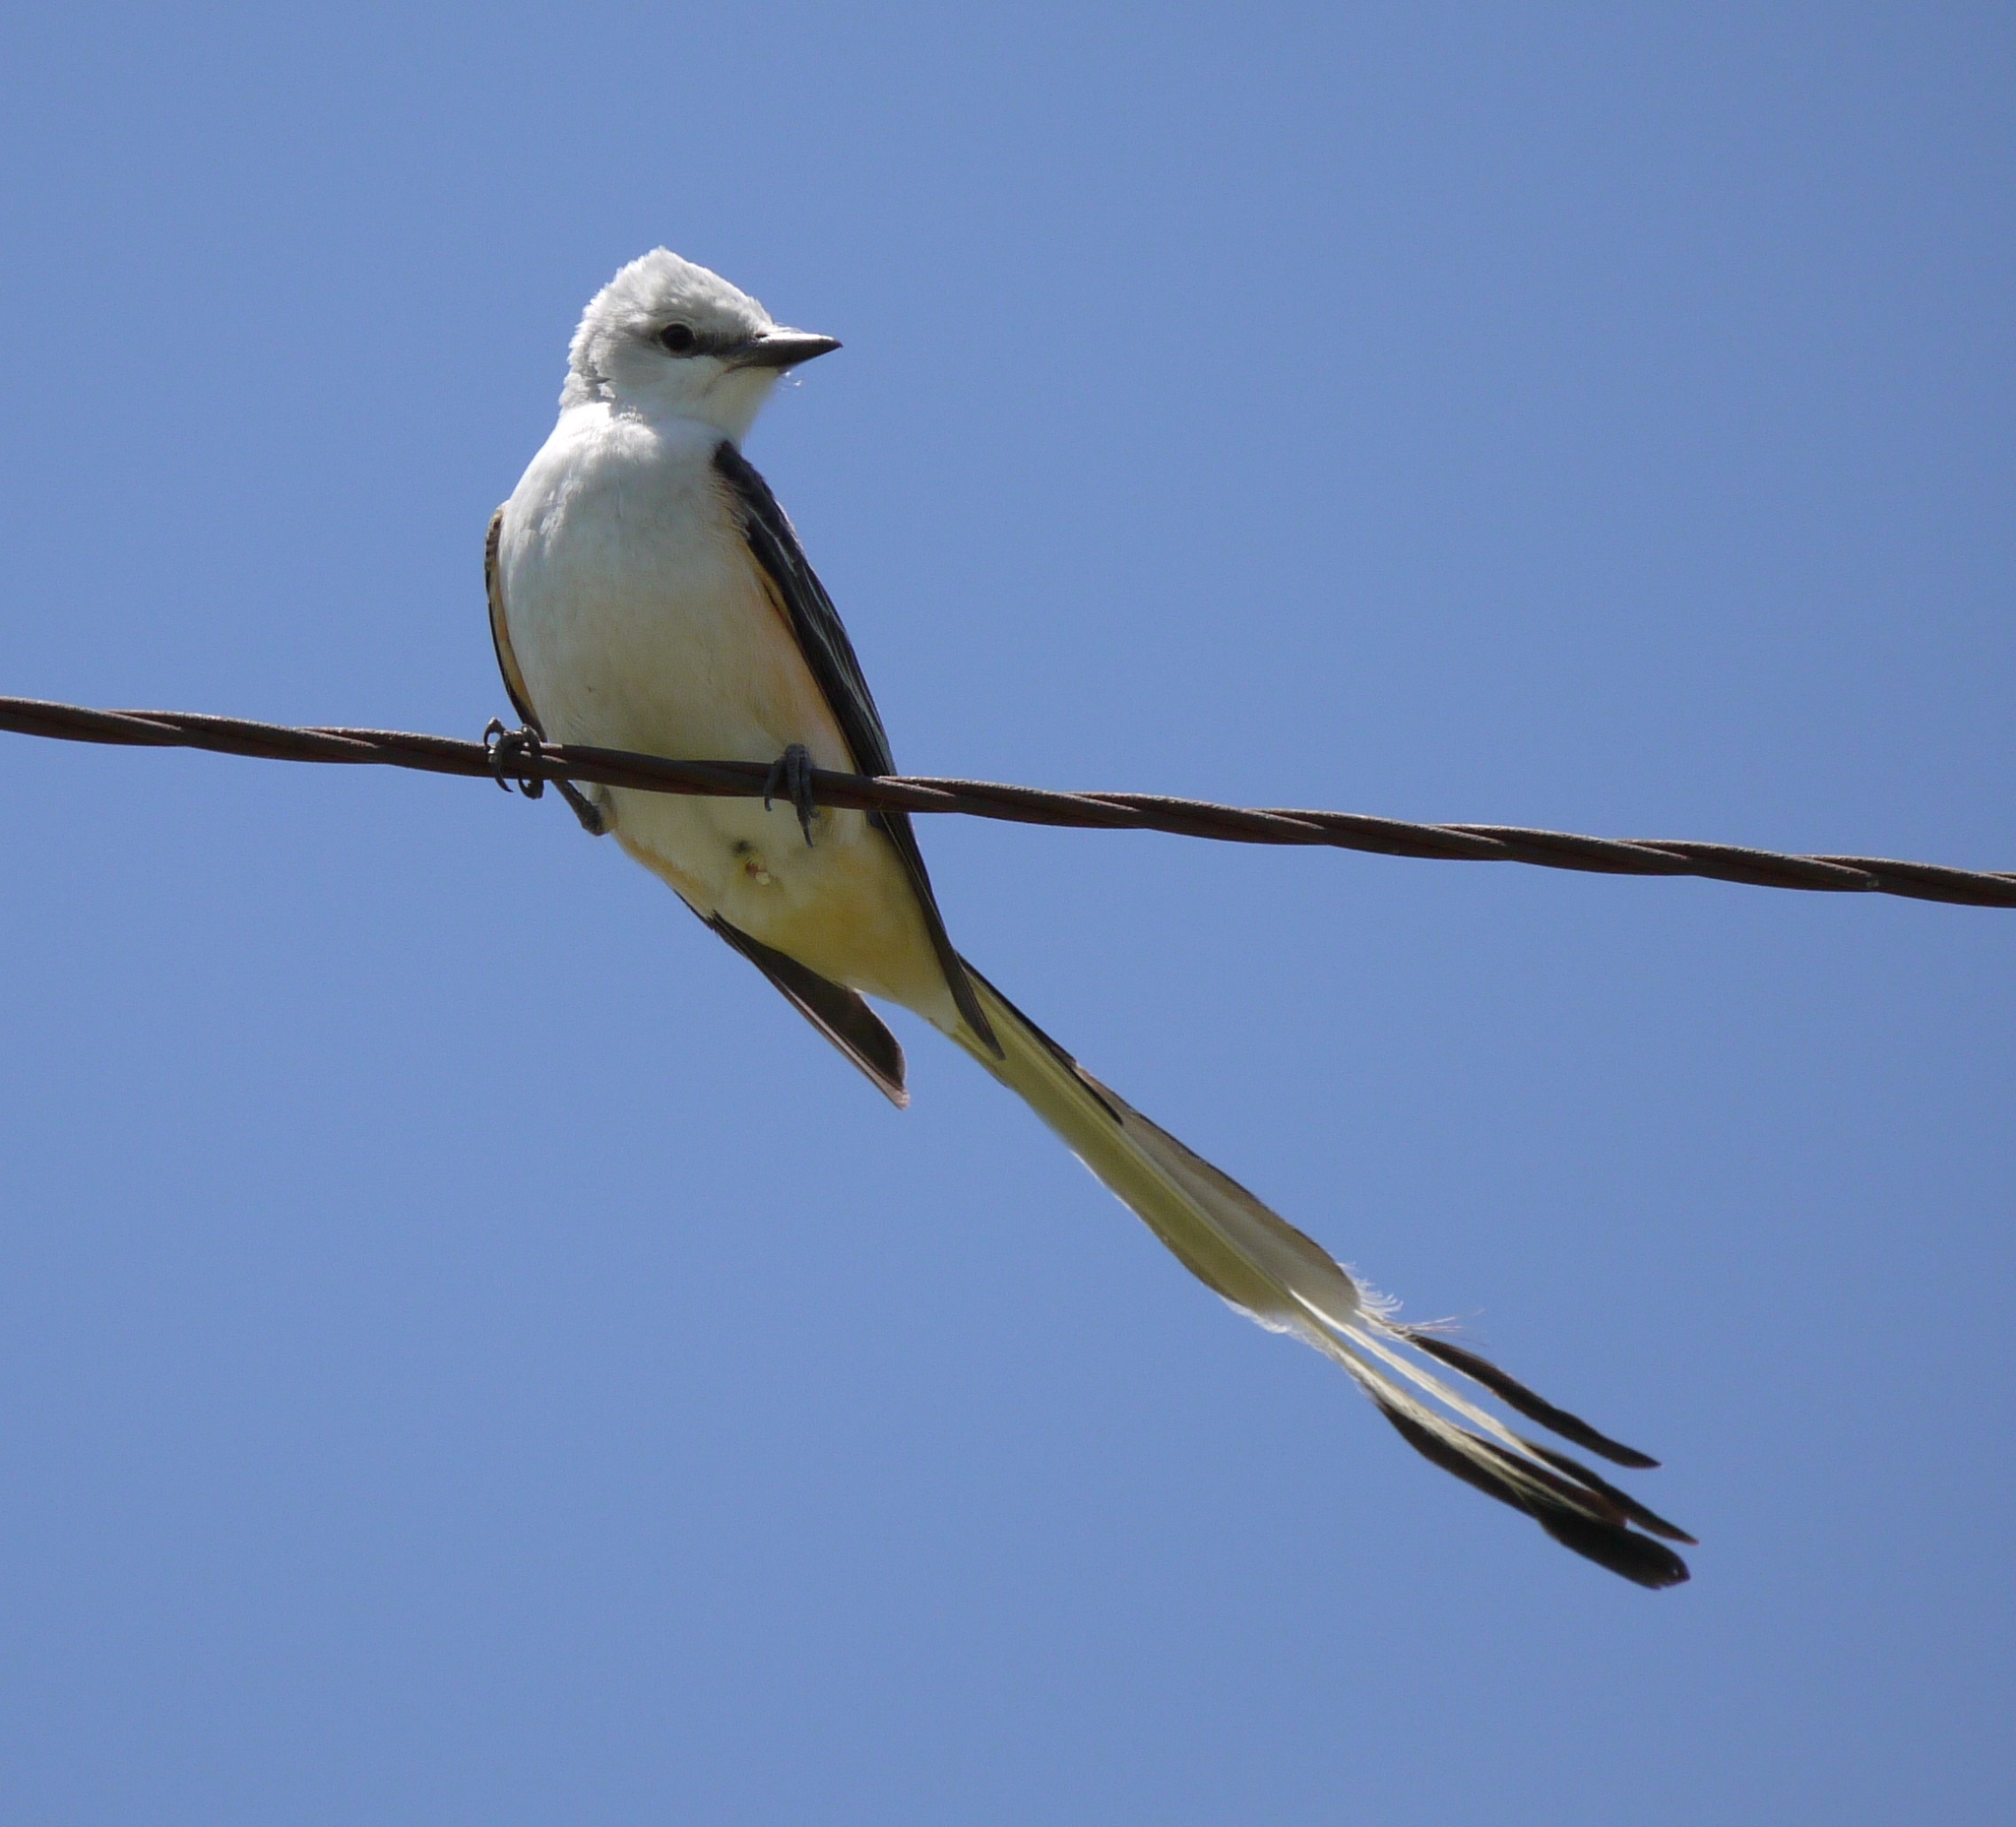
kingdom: Animalia
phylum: Chordata
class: Aves
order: Passeriformes
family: Tyrannidae
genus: Tyrannus
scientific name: Tyrannus forficatus
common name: Scissor-tailed flycatcher
